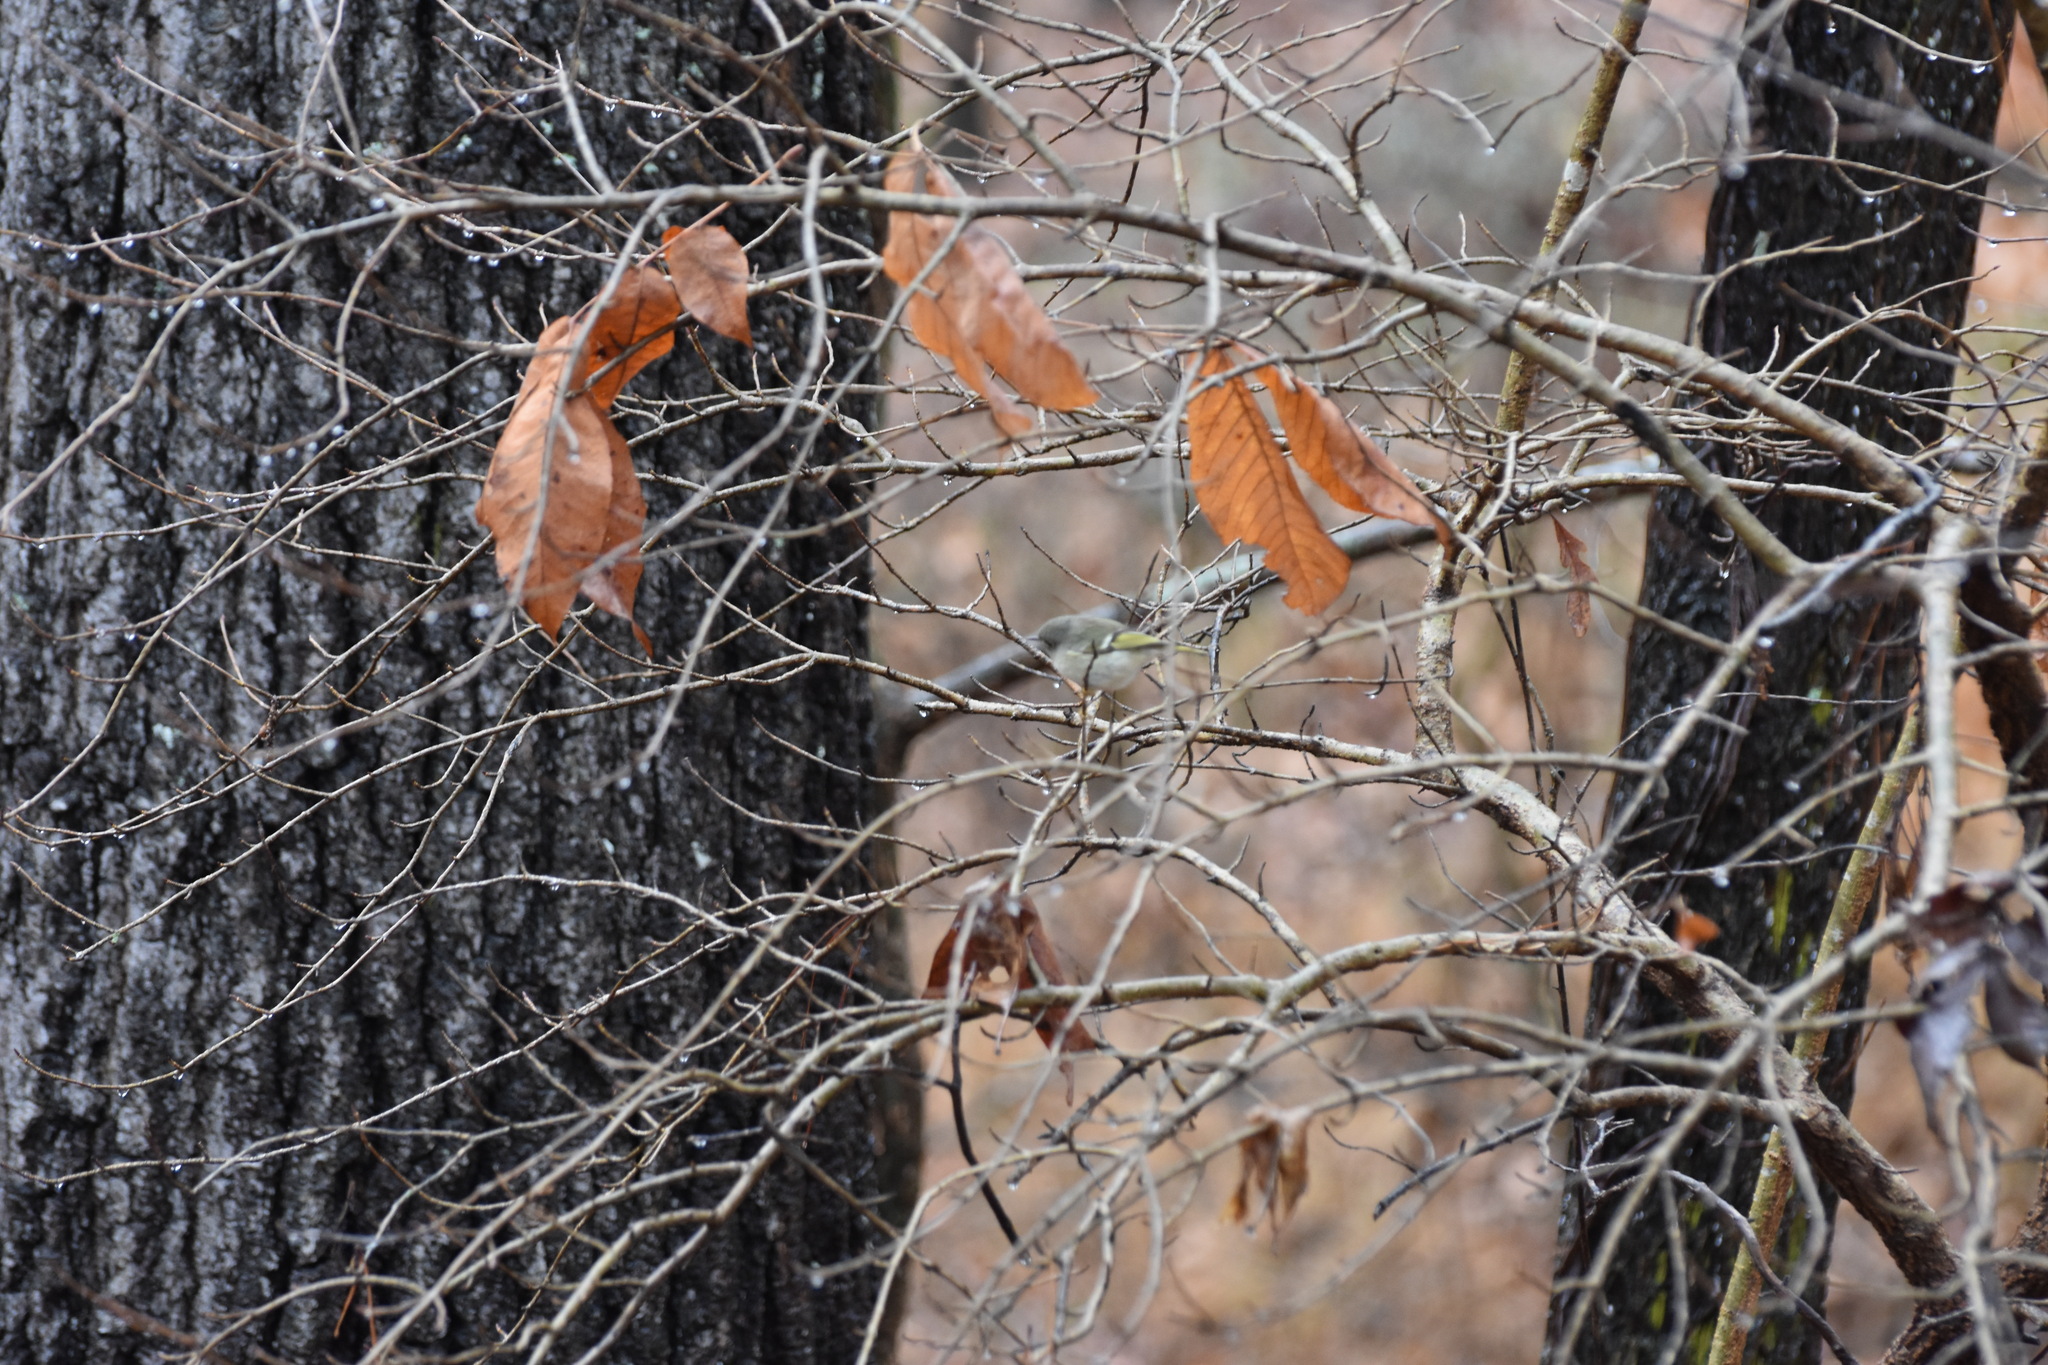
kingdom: Animalia
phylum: Chordata
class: Aves
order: Passeriformes
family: Regulidae
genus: Regulus
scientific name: Regulus calendula
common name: Ruby-crowned kinglet
